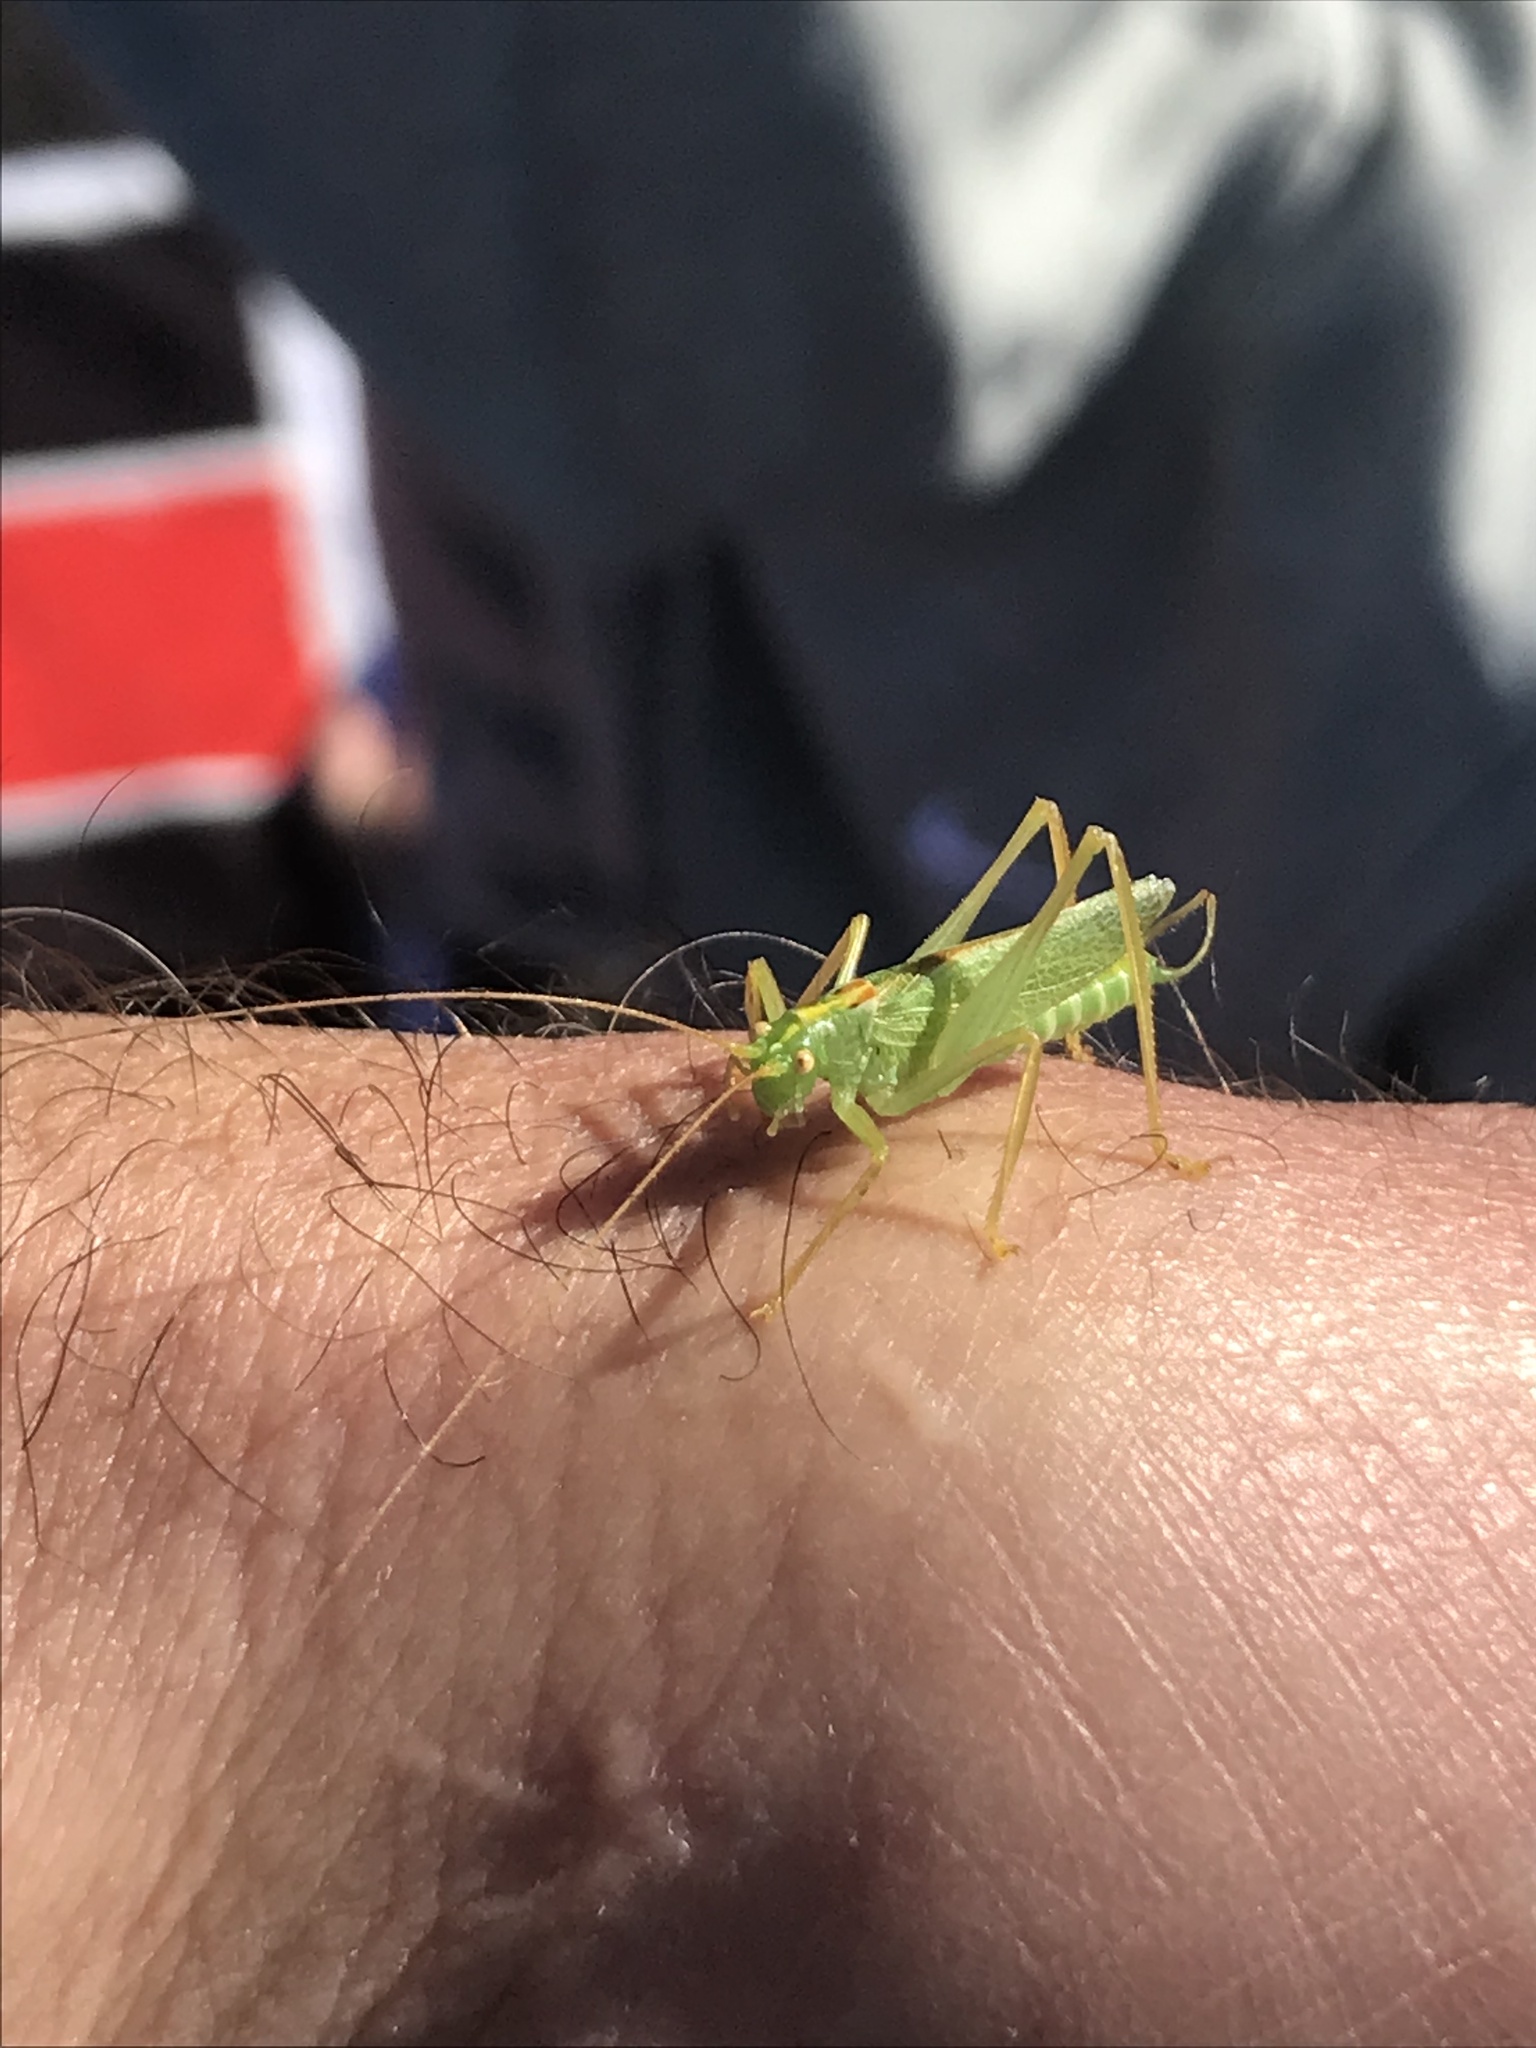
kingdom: Animalia
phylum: Arthropoda
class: Insecta
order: Orthoptera
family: Tettigoniidae
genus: Meconema
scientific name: Meconema thalassinum
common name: Oak bush-cricket
